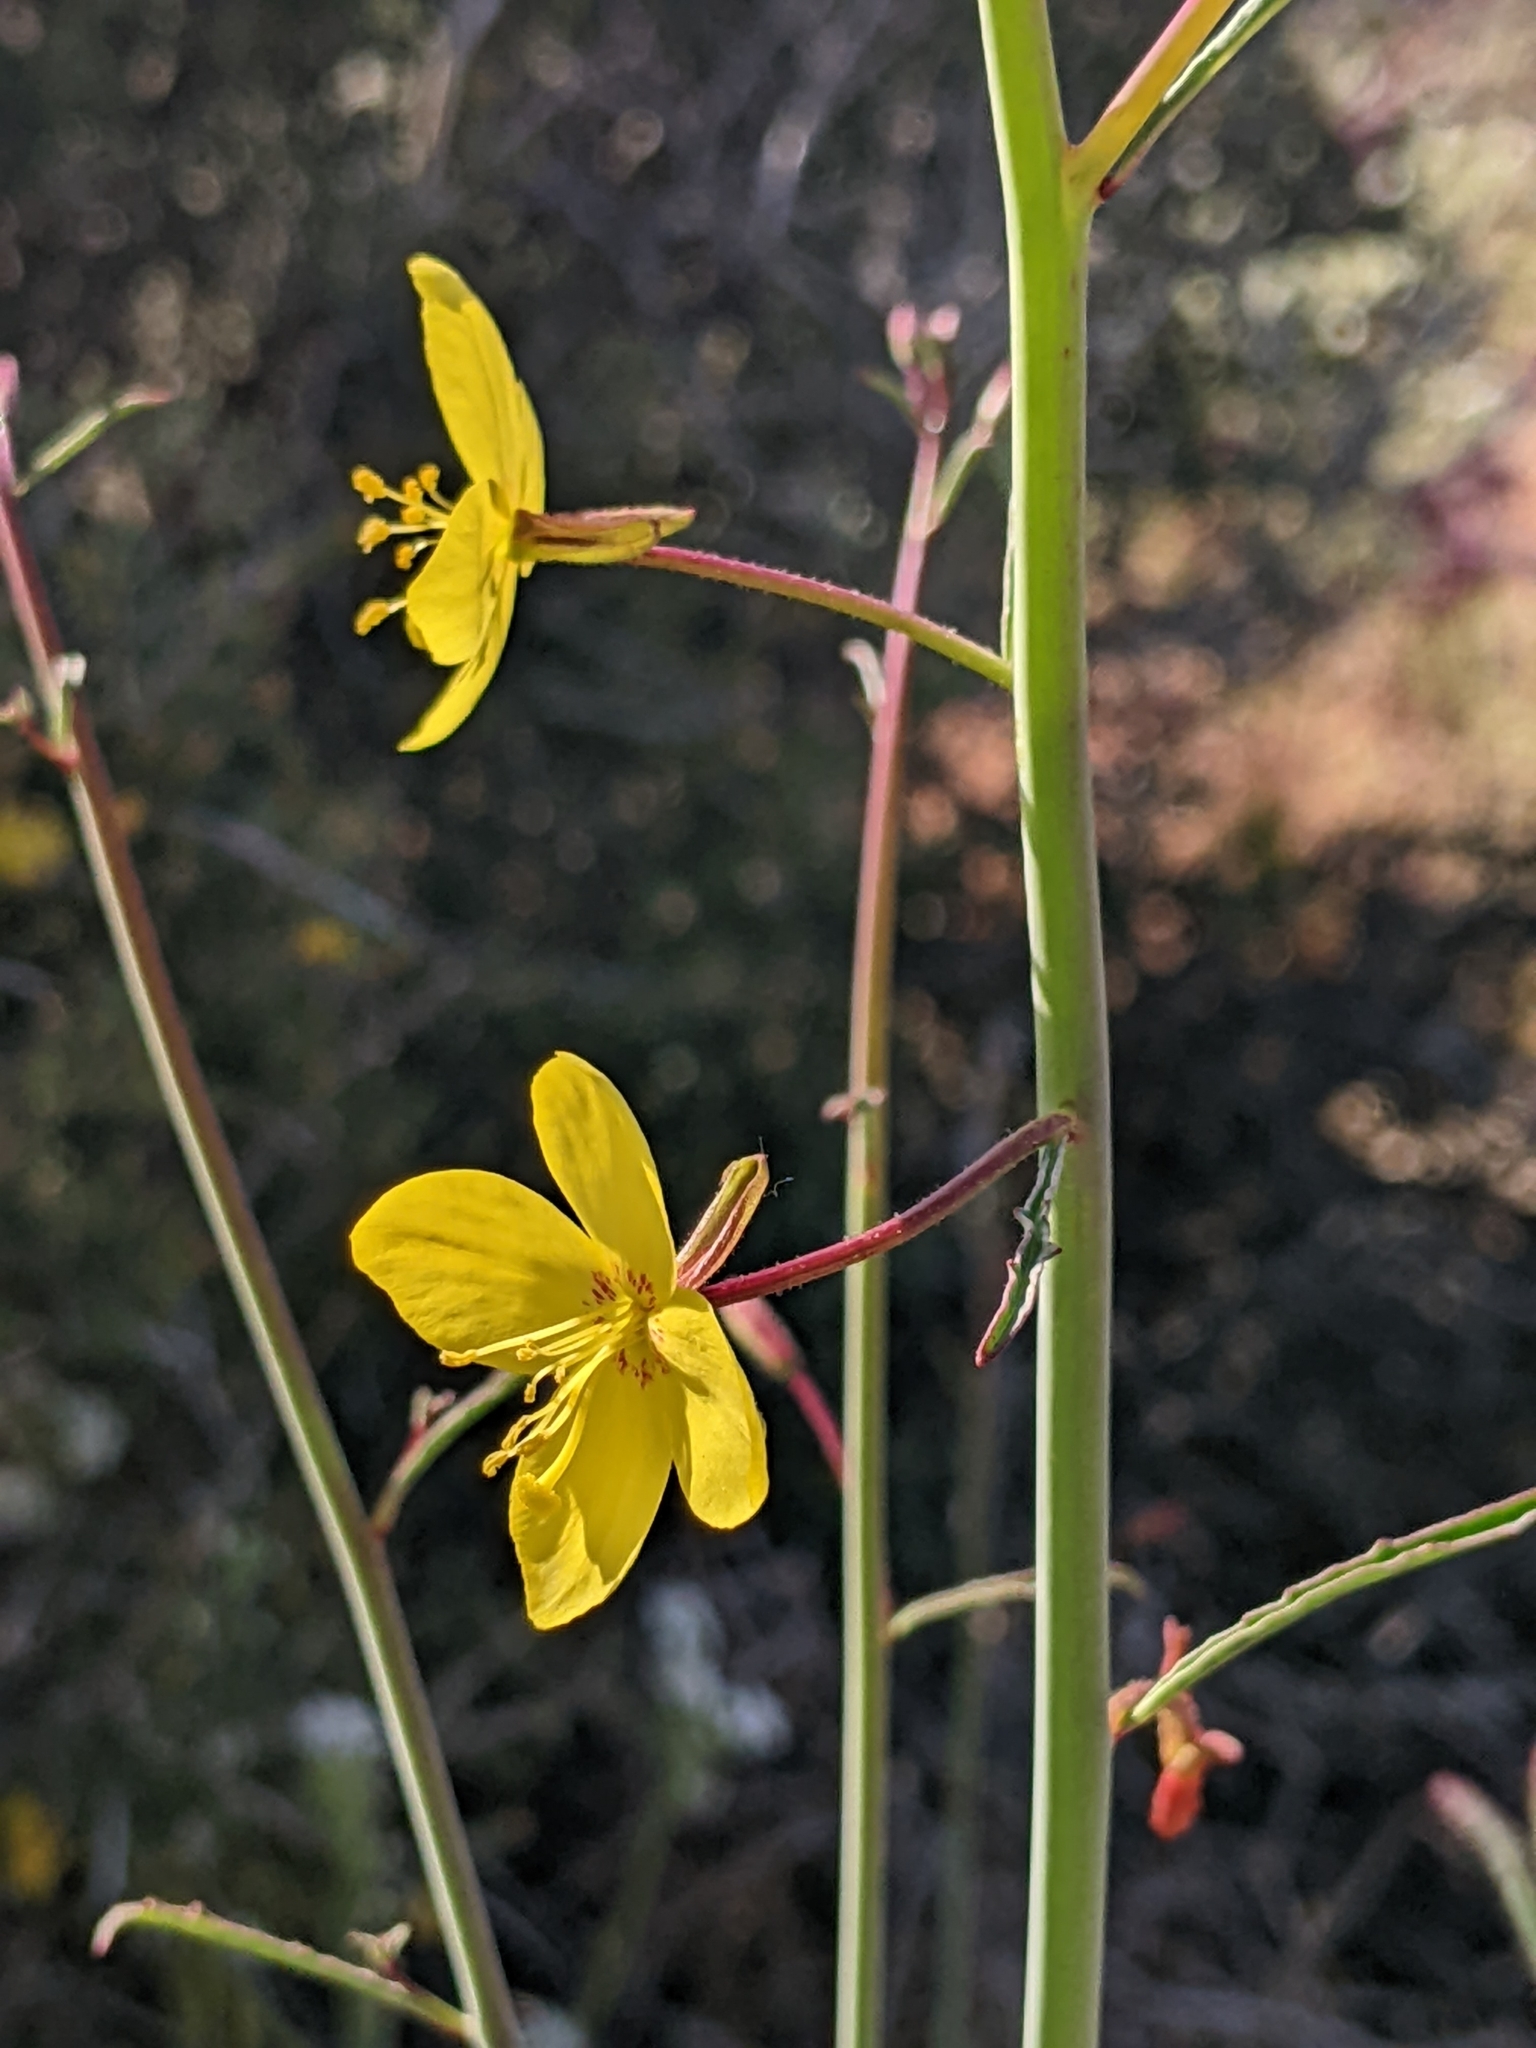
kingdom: Plantae
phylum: Tracheophyta
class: Magnoliopsida
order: Myrtales
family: Onagraceae
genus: Eulobus
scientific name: Eulobus californicus
